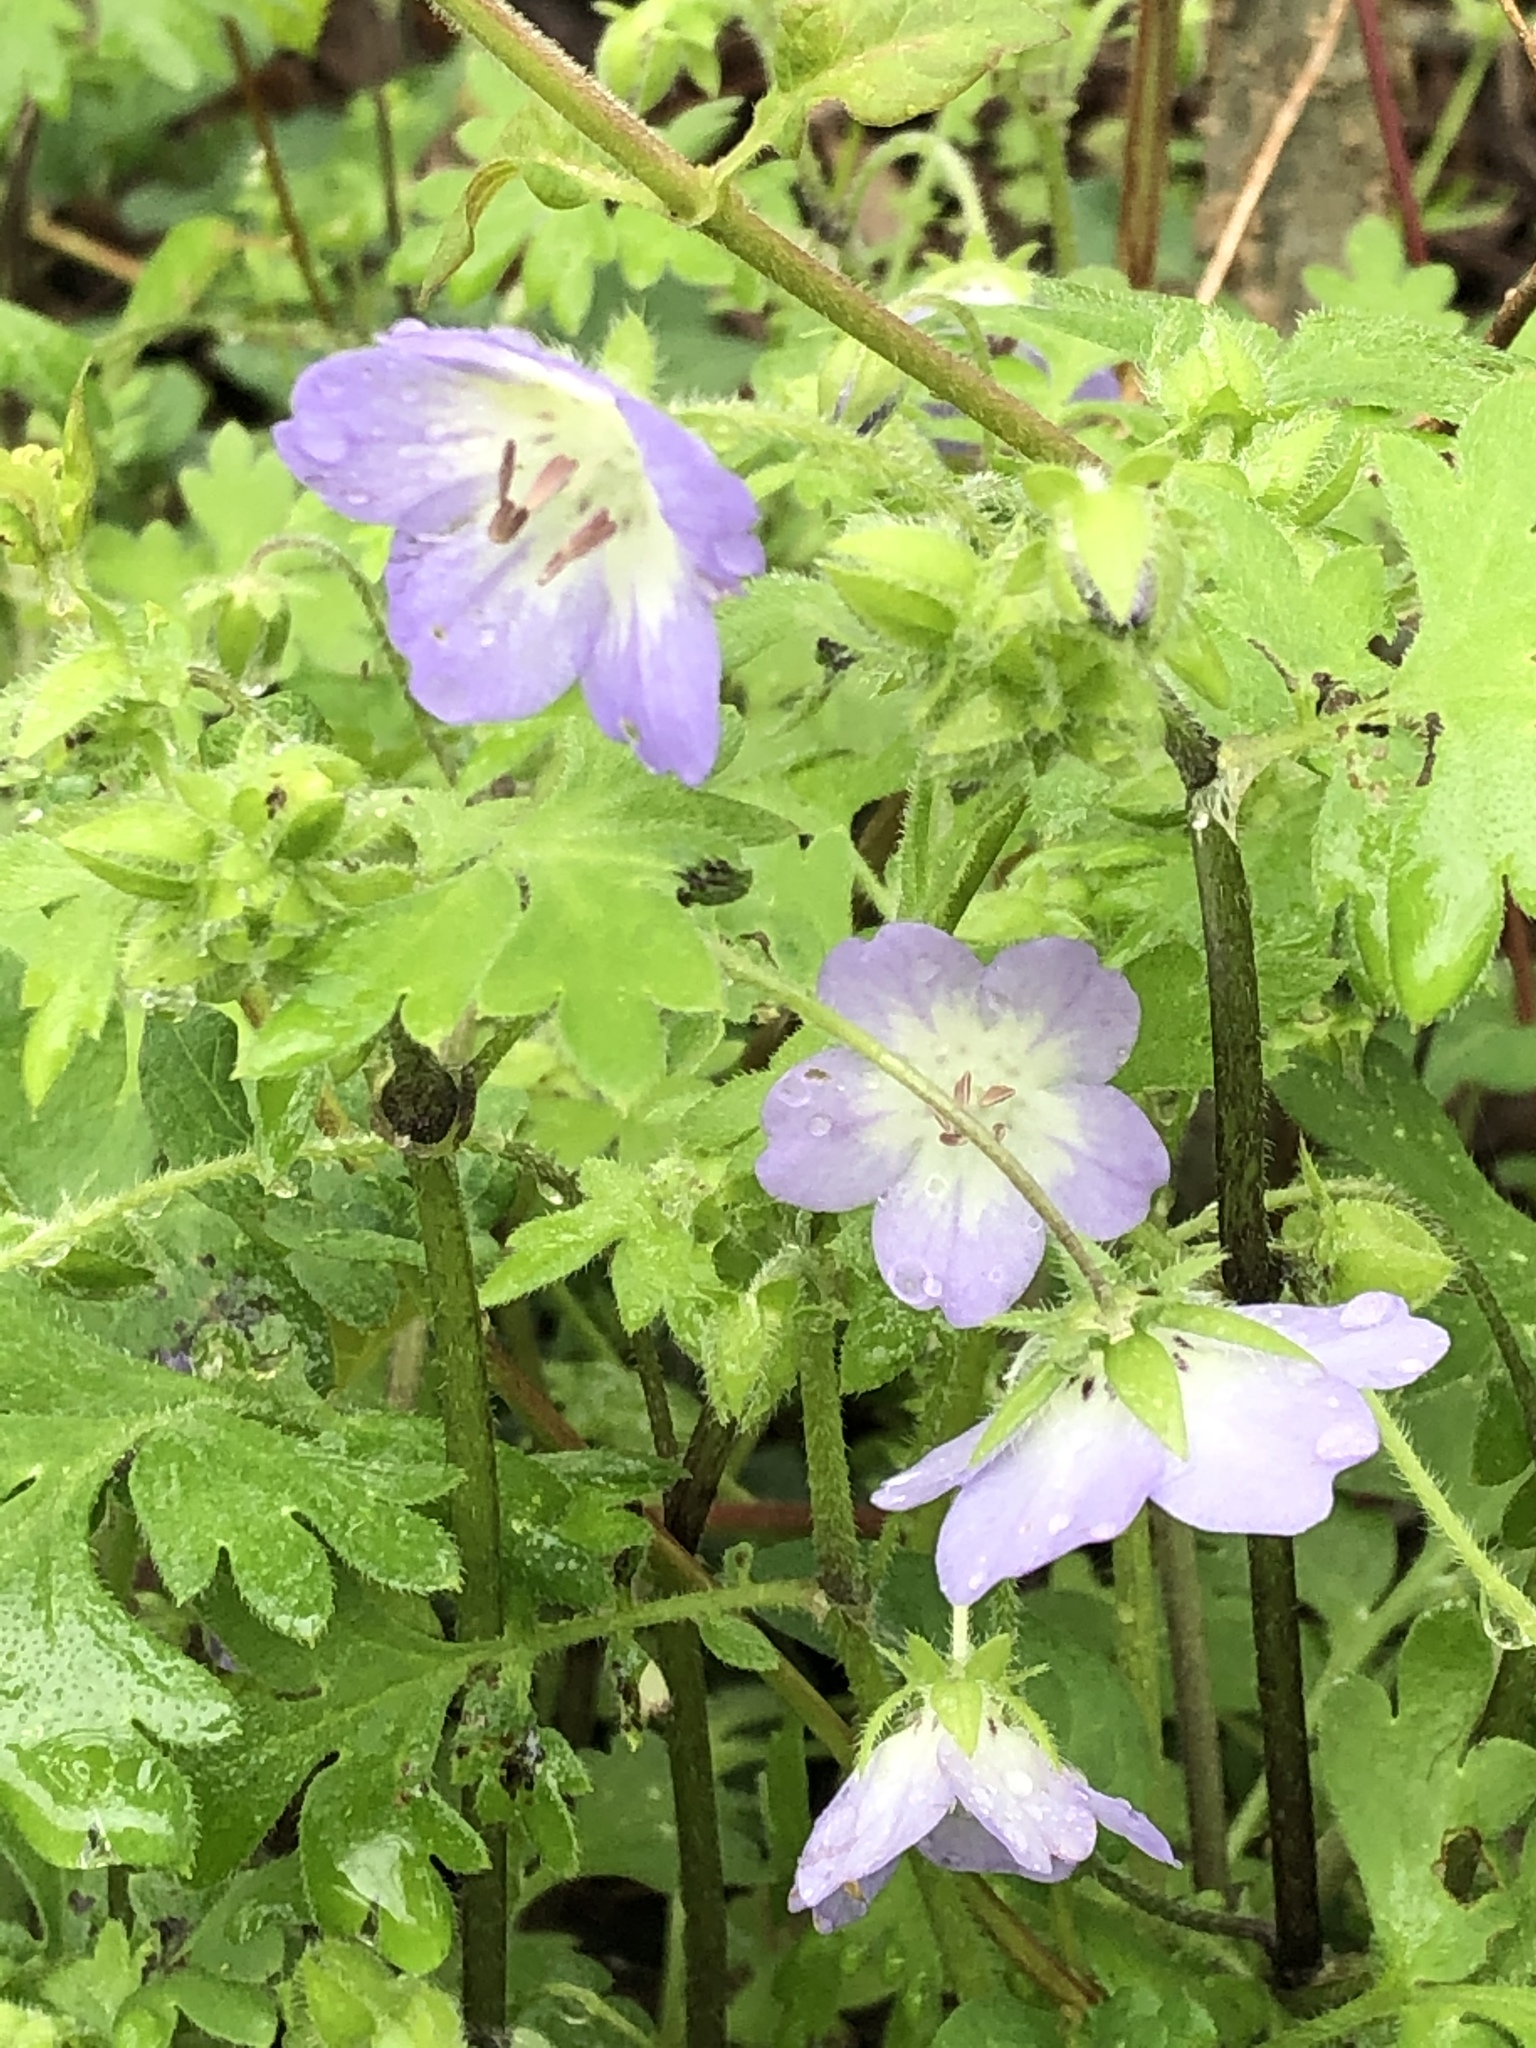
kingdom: Plantae
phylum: Tracheophyta
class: Magnoliopsida
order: Boraginales
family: Hydrophyllaceae
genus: Nemophila
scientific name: Nemophila phacelioides
